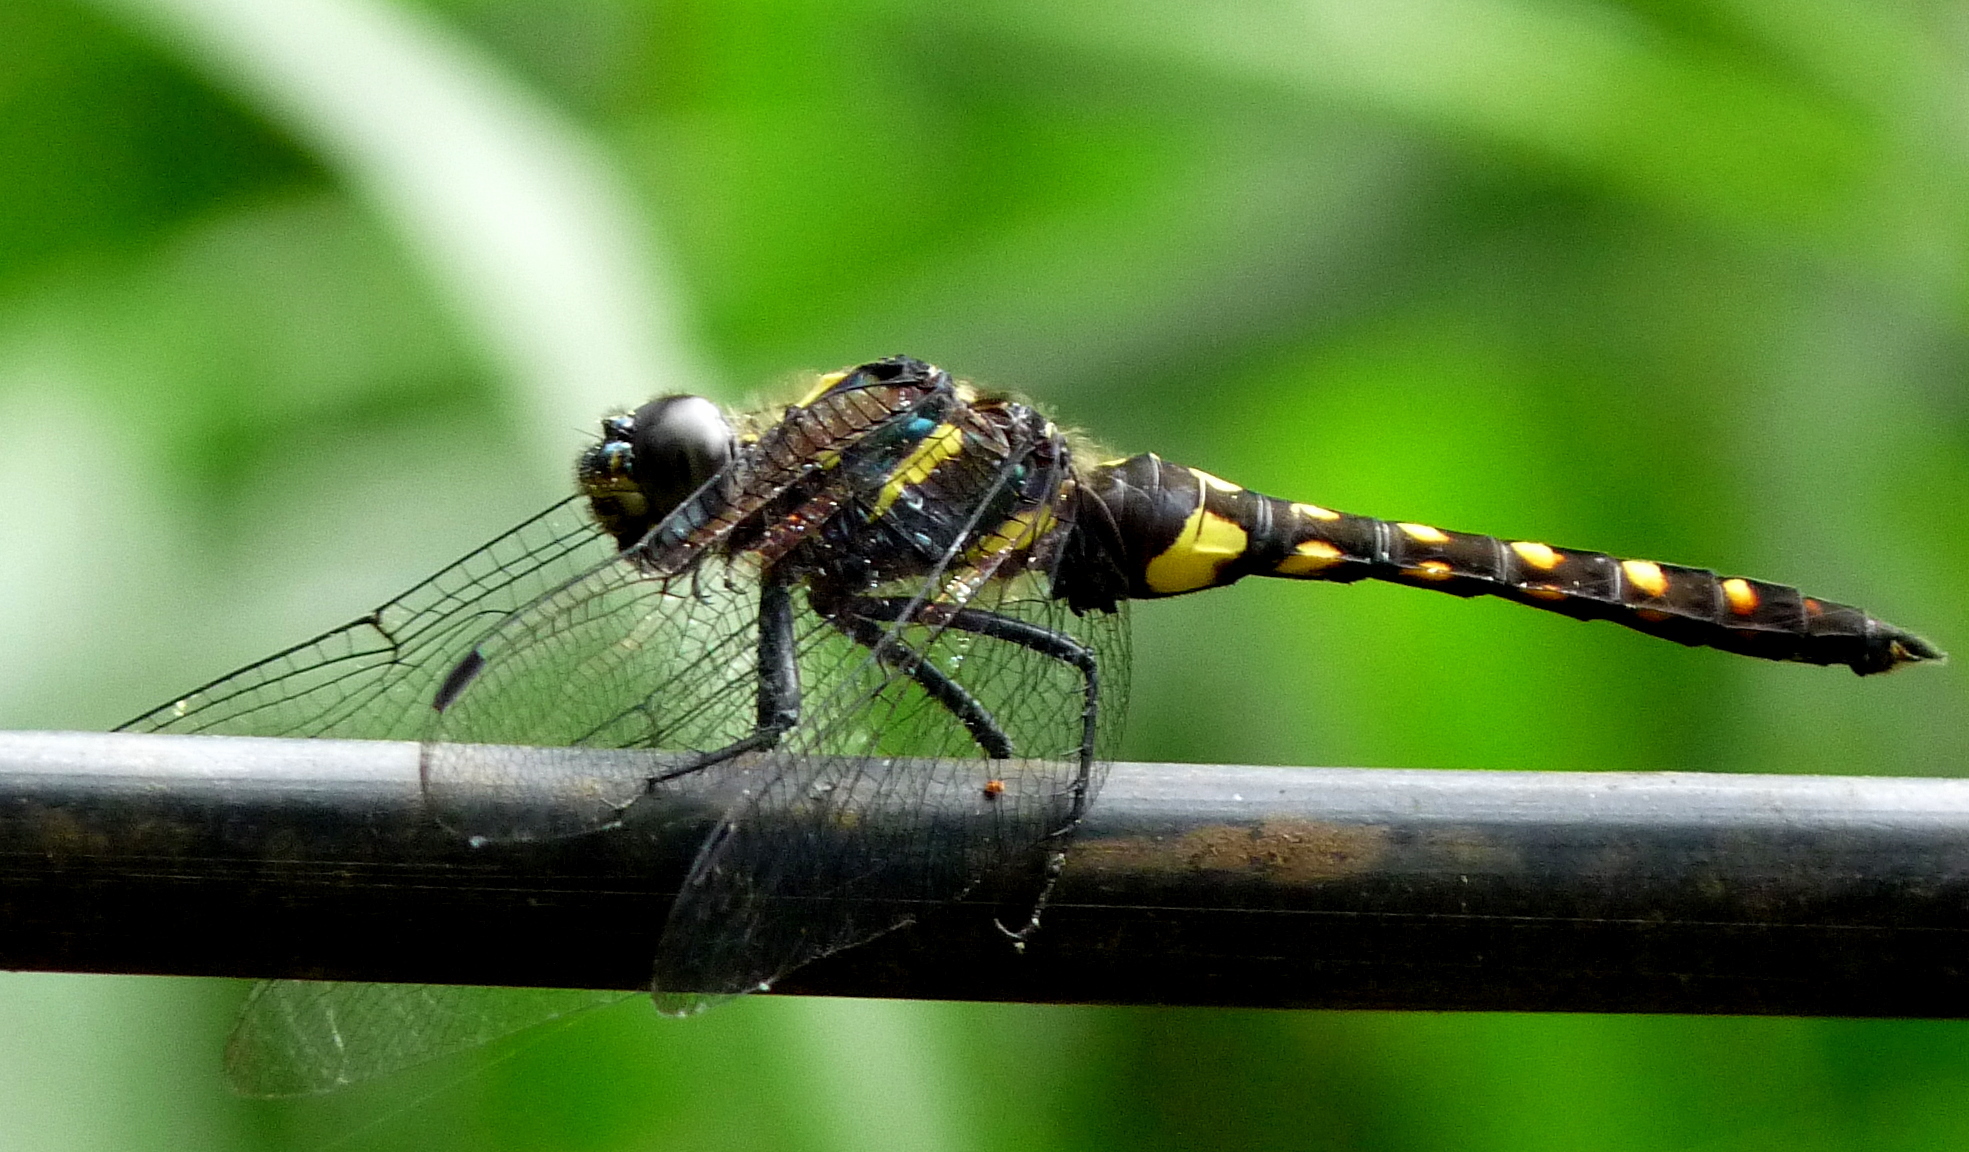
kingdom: Animalia
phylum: Arthropoda
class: Insecta
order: Odonata
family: Libellulidae
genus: Onychothemis
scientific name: Onychothemis testacea
